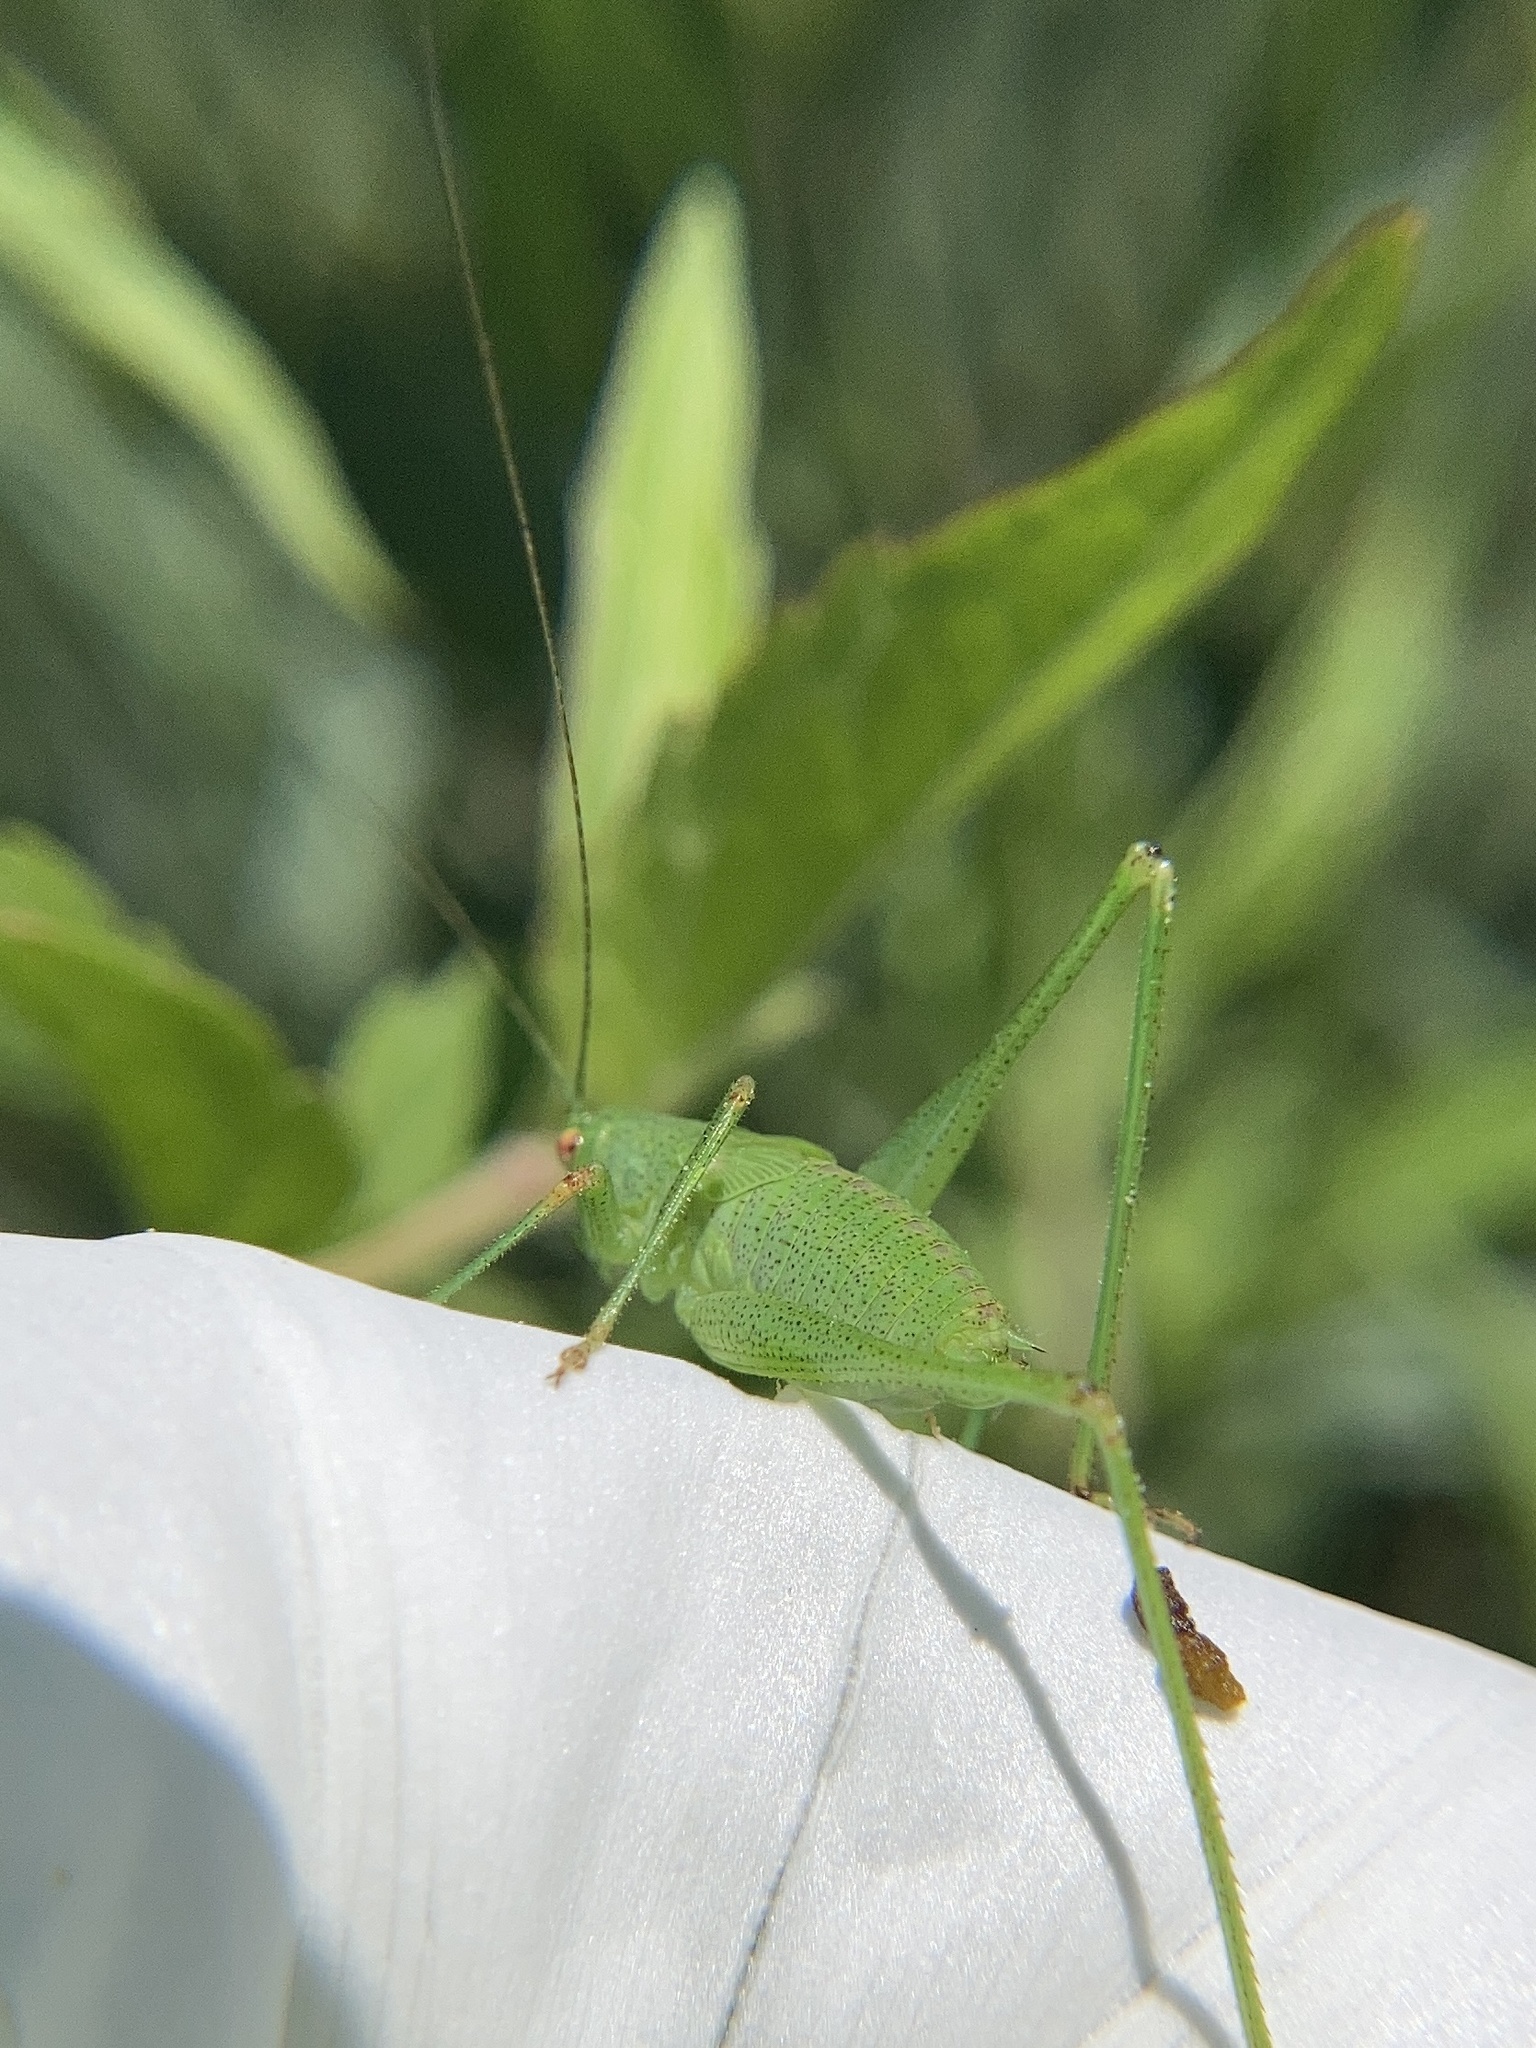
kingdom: Animalia
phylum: Arthropoda
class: Insecta
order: Orthoptera
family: Tettigoniidae
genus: Phaneroptera
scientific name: Phaneroptera nana
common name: Southern sickle bush-cricket
